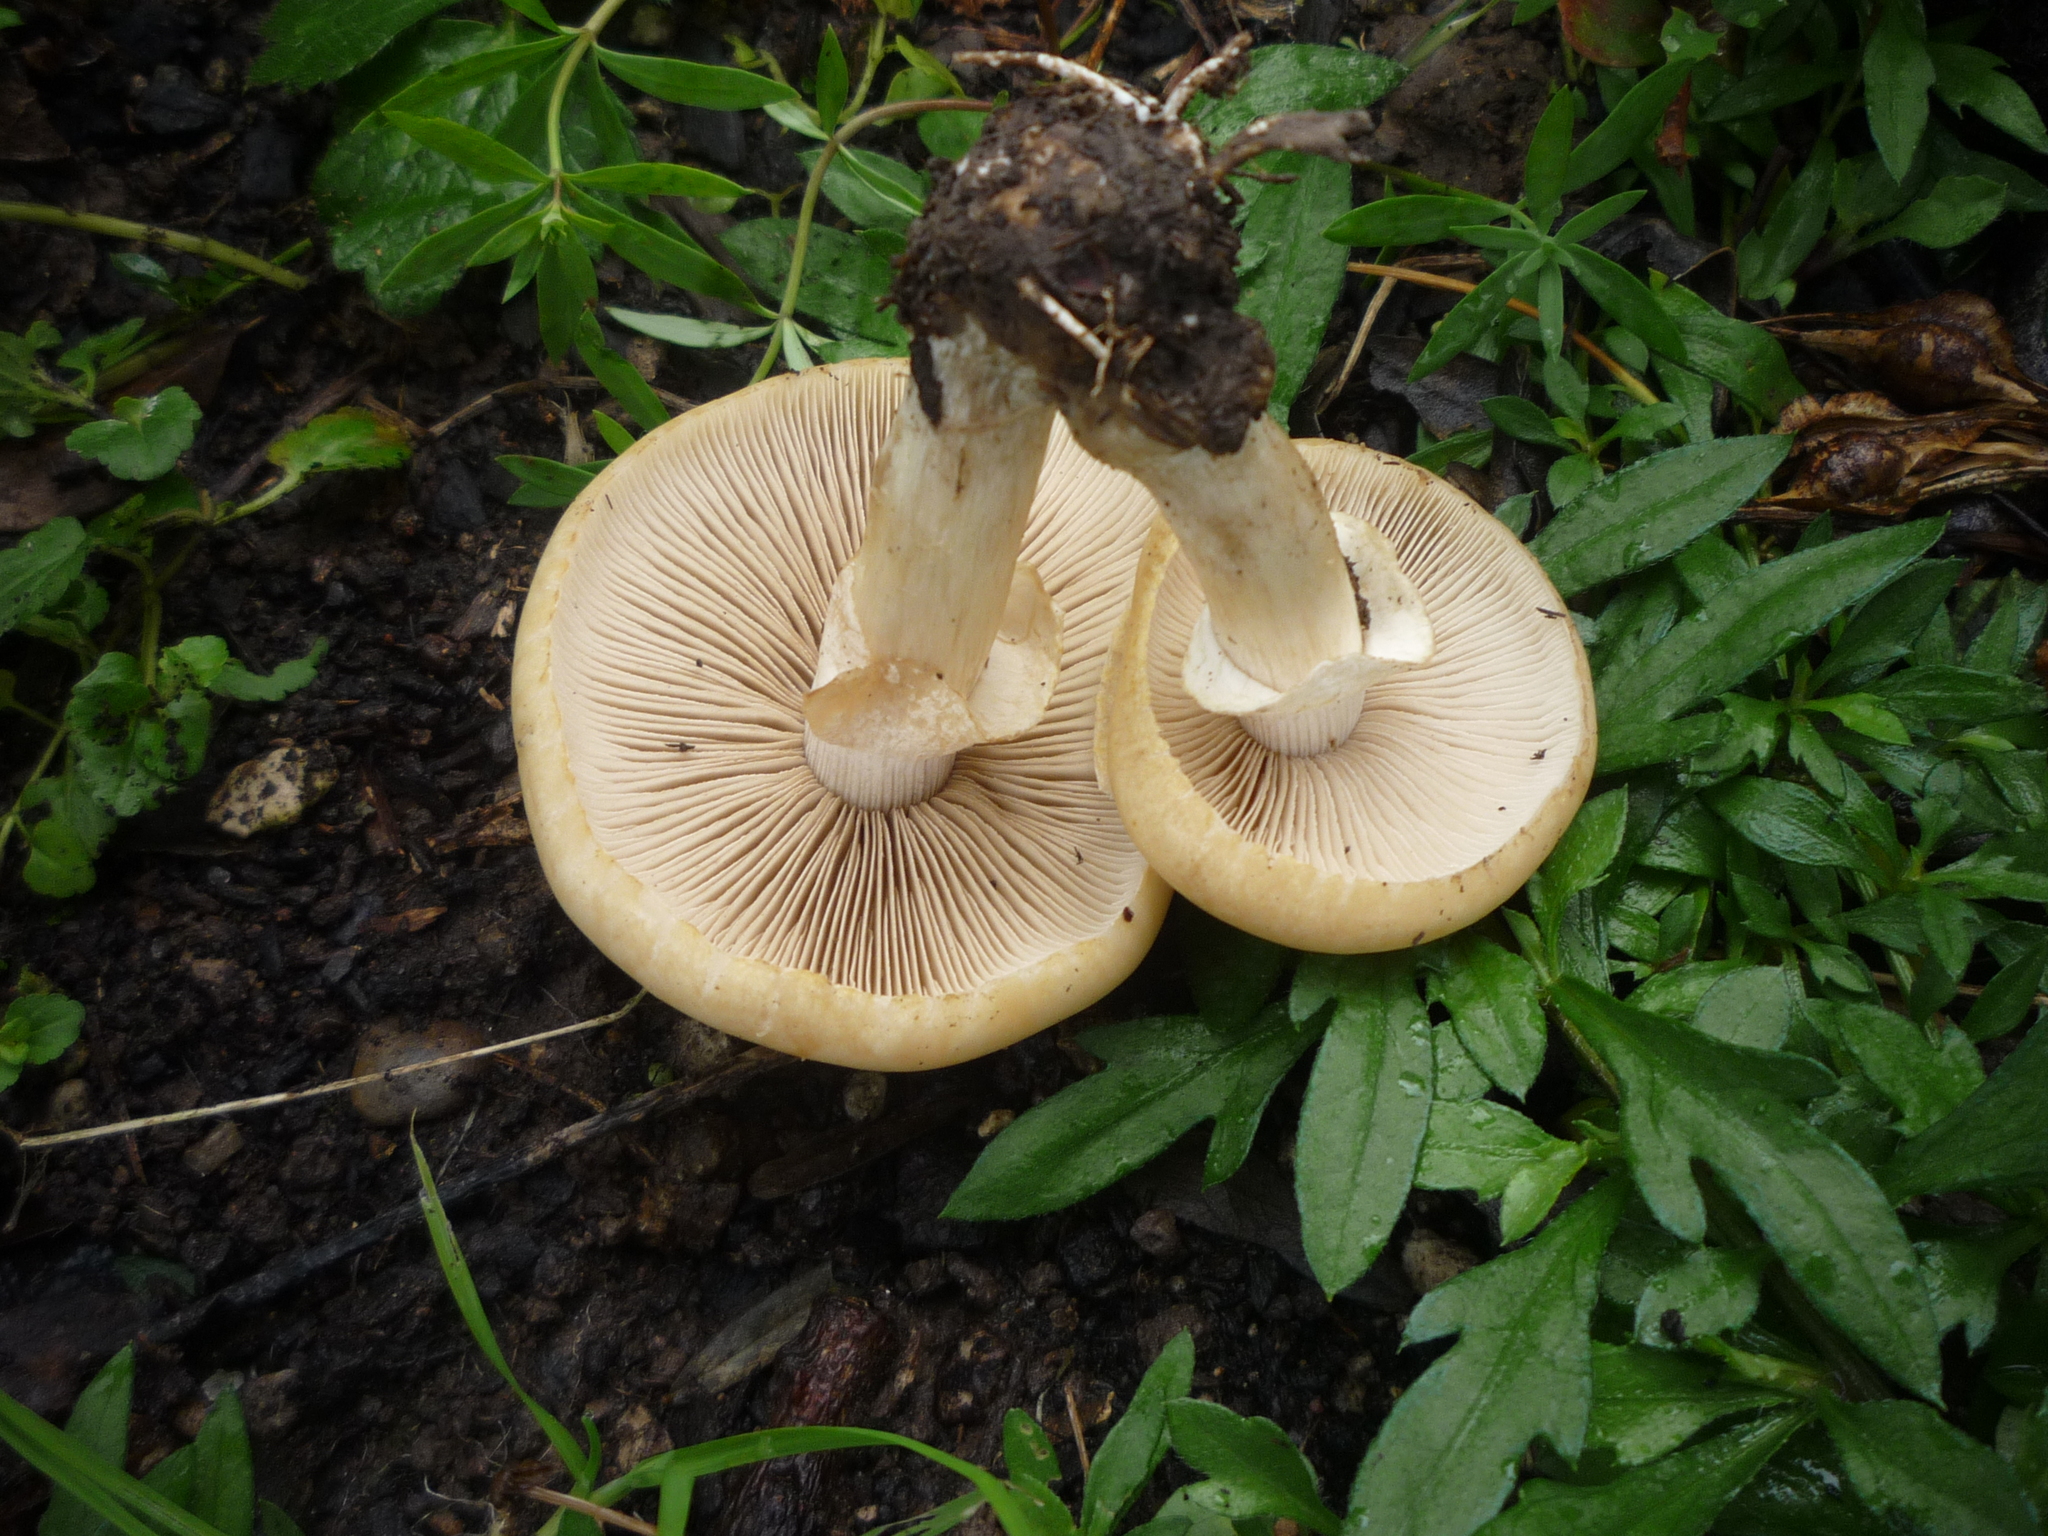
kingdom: Fungi
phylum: Basidiomycota
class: Agaricomycetes
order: Agaricales
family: Strophariaceae
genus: Agrocybe
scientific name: Agrocybe praecox
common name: Spring fieldcap
